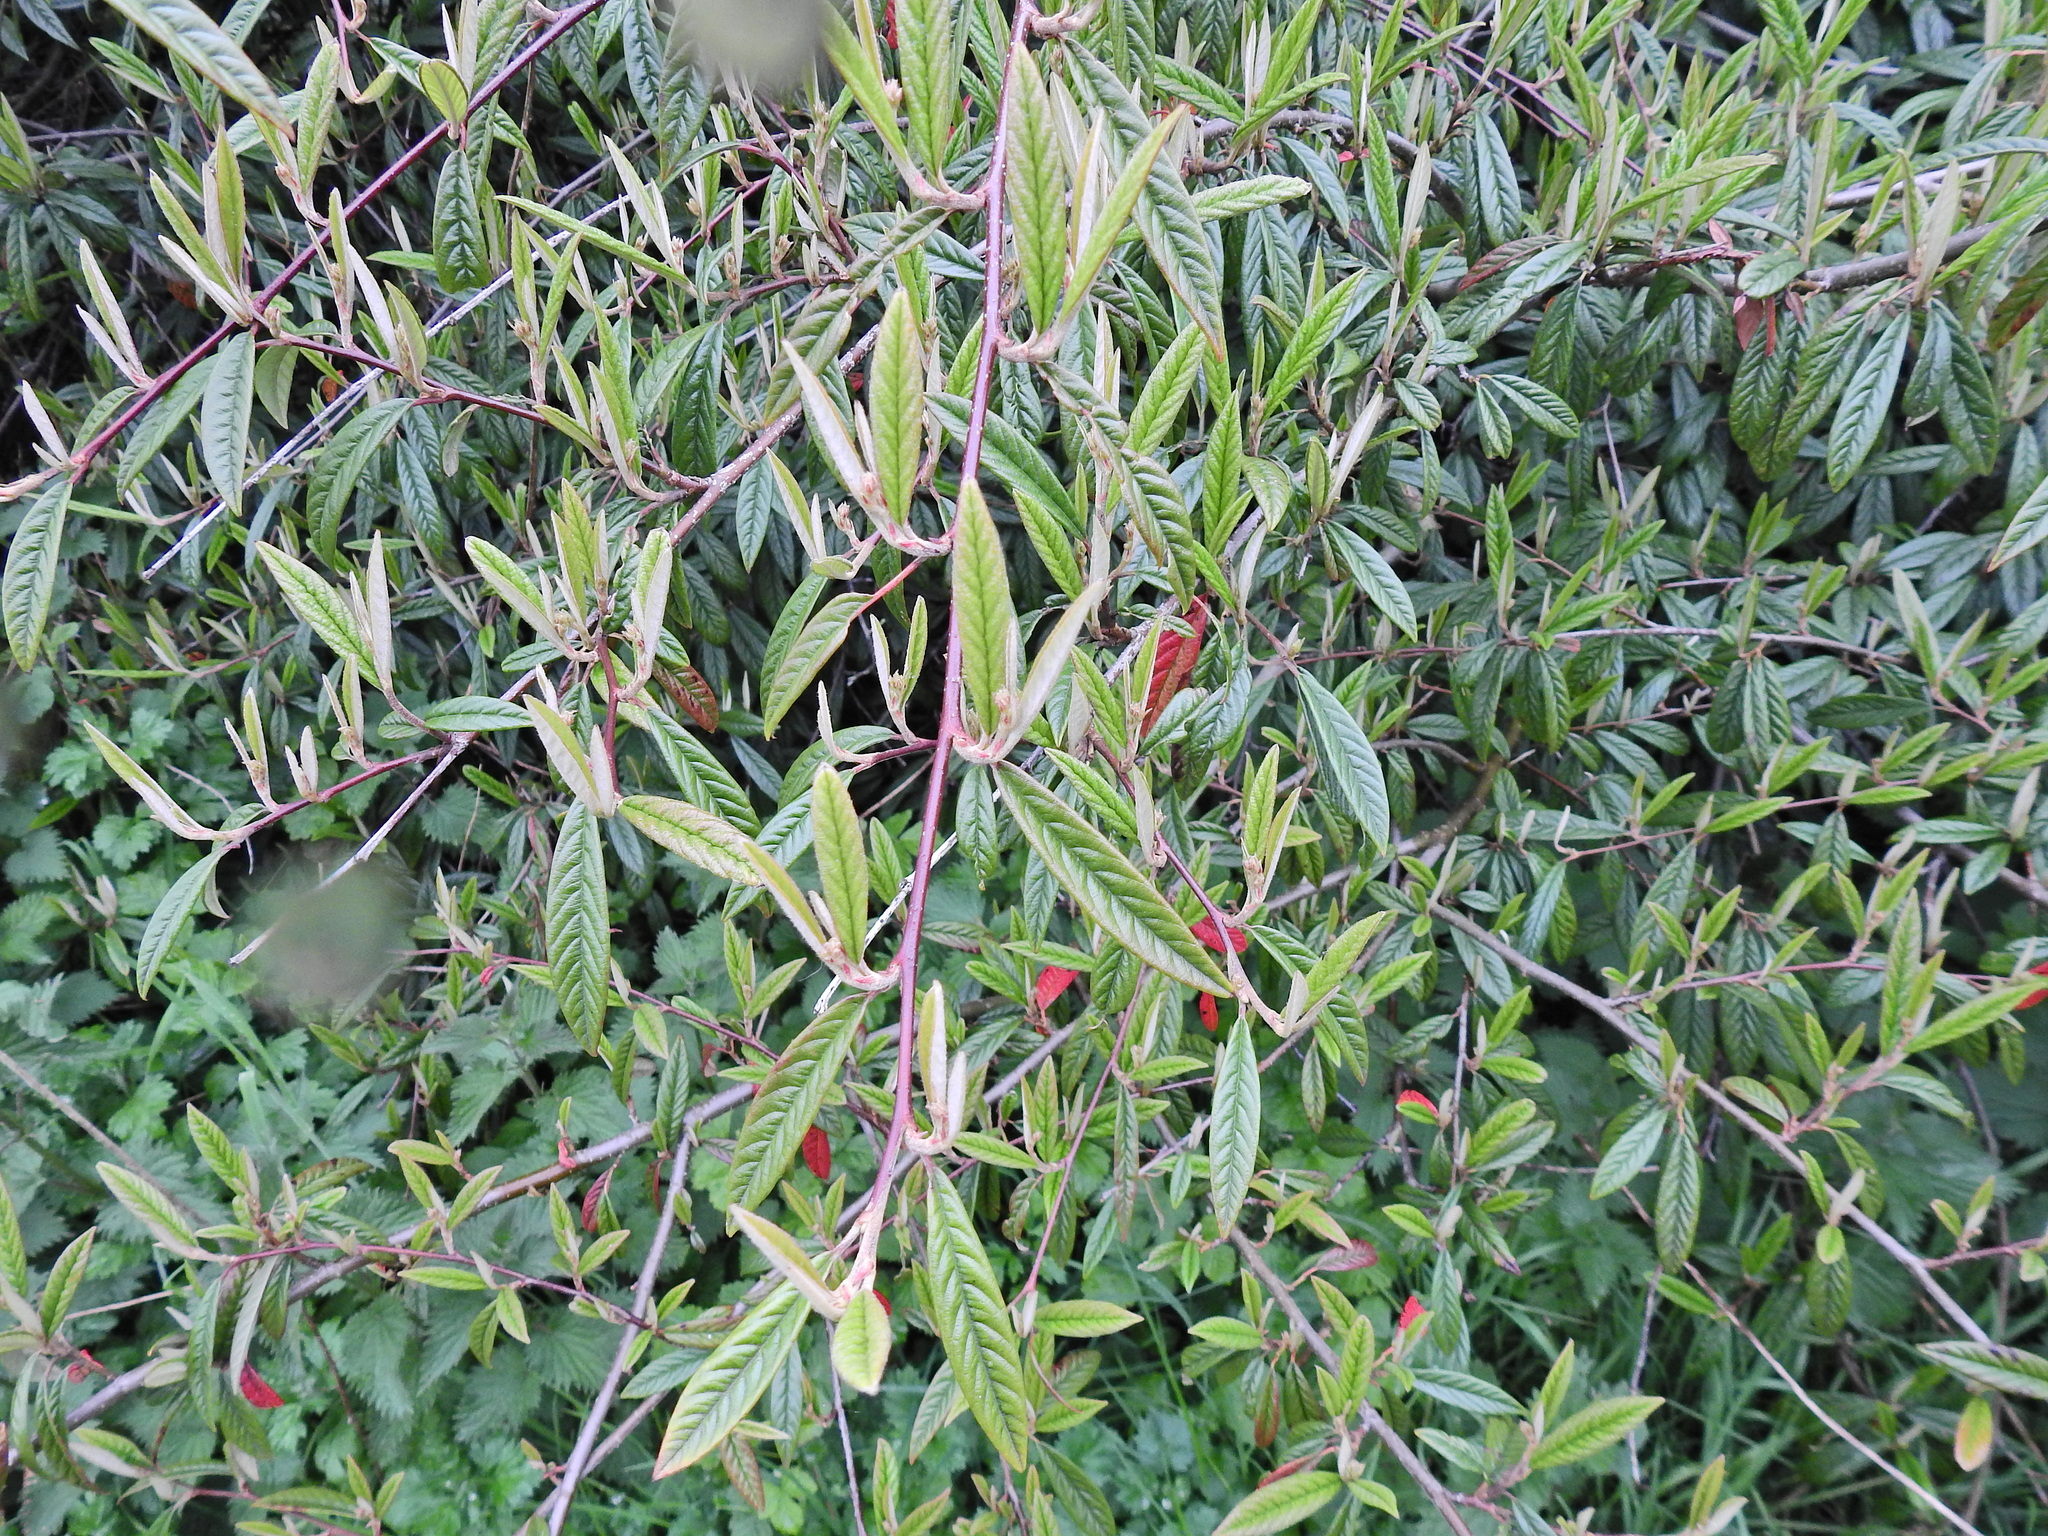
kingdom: Plantae
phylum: Tracheophyta
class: Magnoliopsida
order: Rosales
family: Rosaceae
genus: Cotoneaster
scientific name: Cotoneaster salicifolius
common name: Willow-leaved cotoneaster
